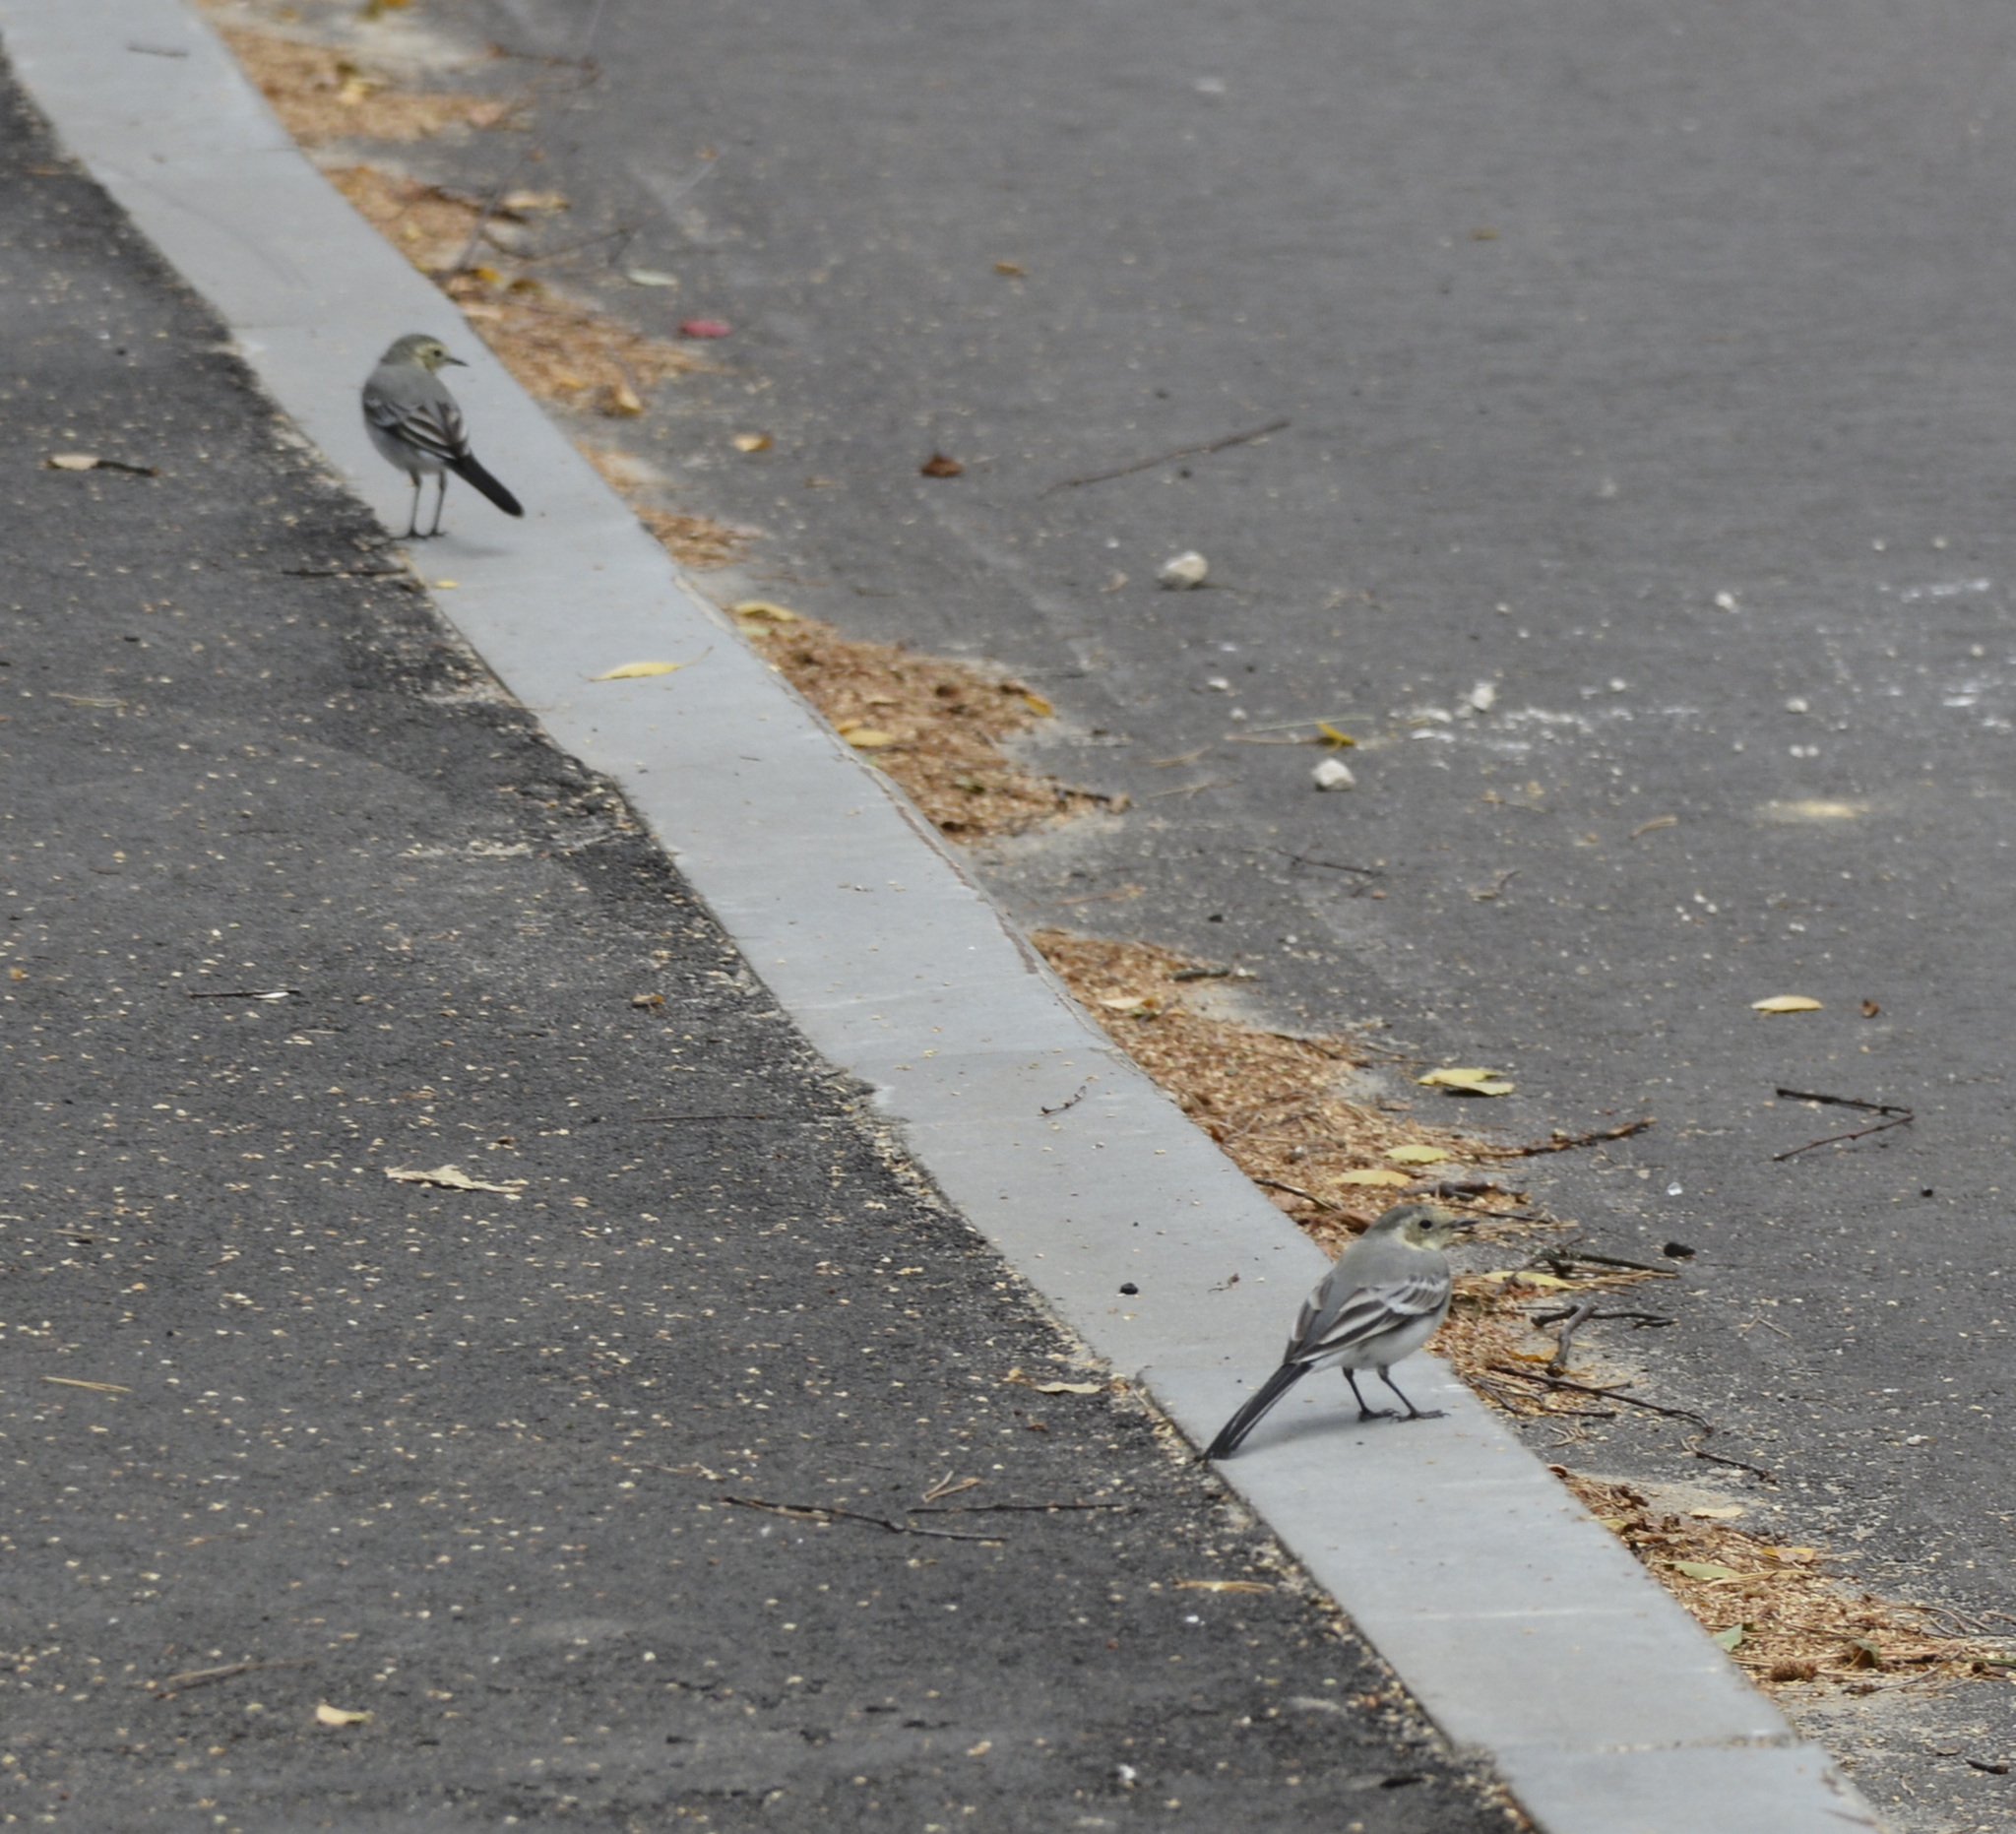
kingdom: Animalia
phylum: Chordata
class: Aves
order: Passeriformes
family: Motacillidae
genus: Motacilla
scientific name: Motacilla alba
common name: White wagtail
